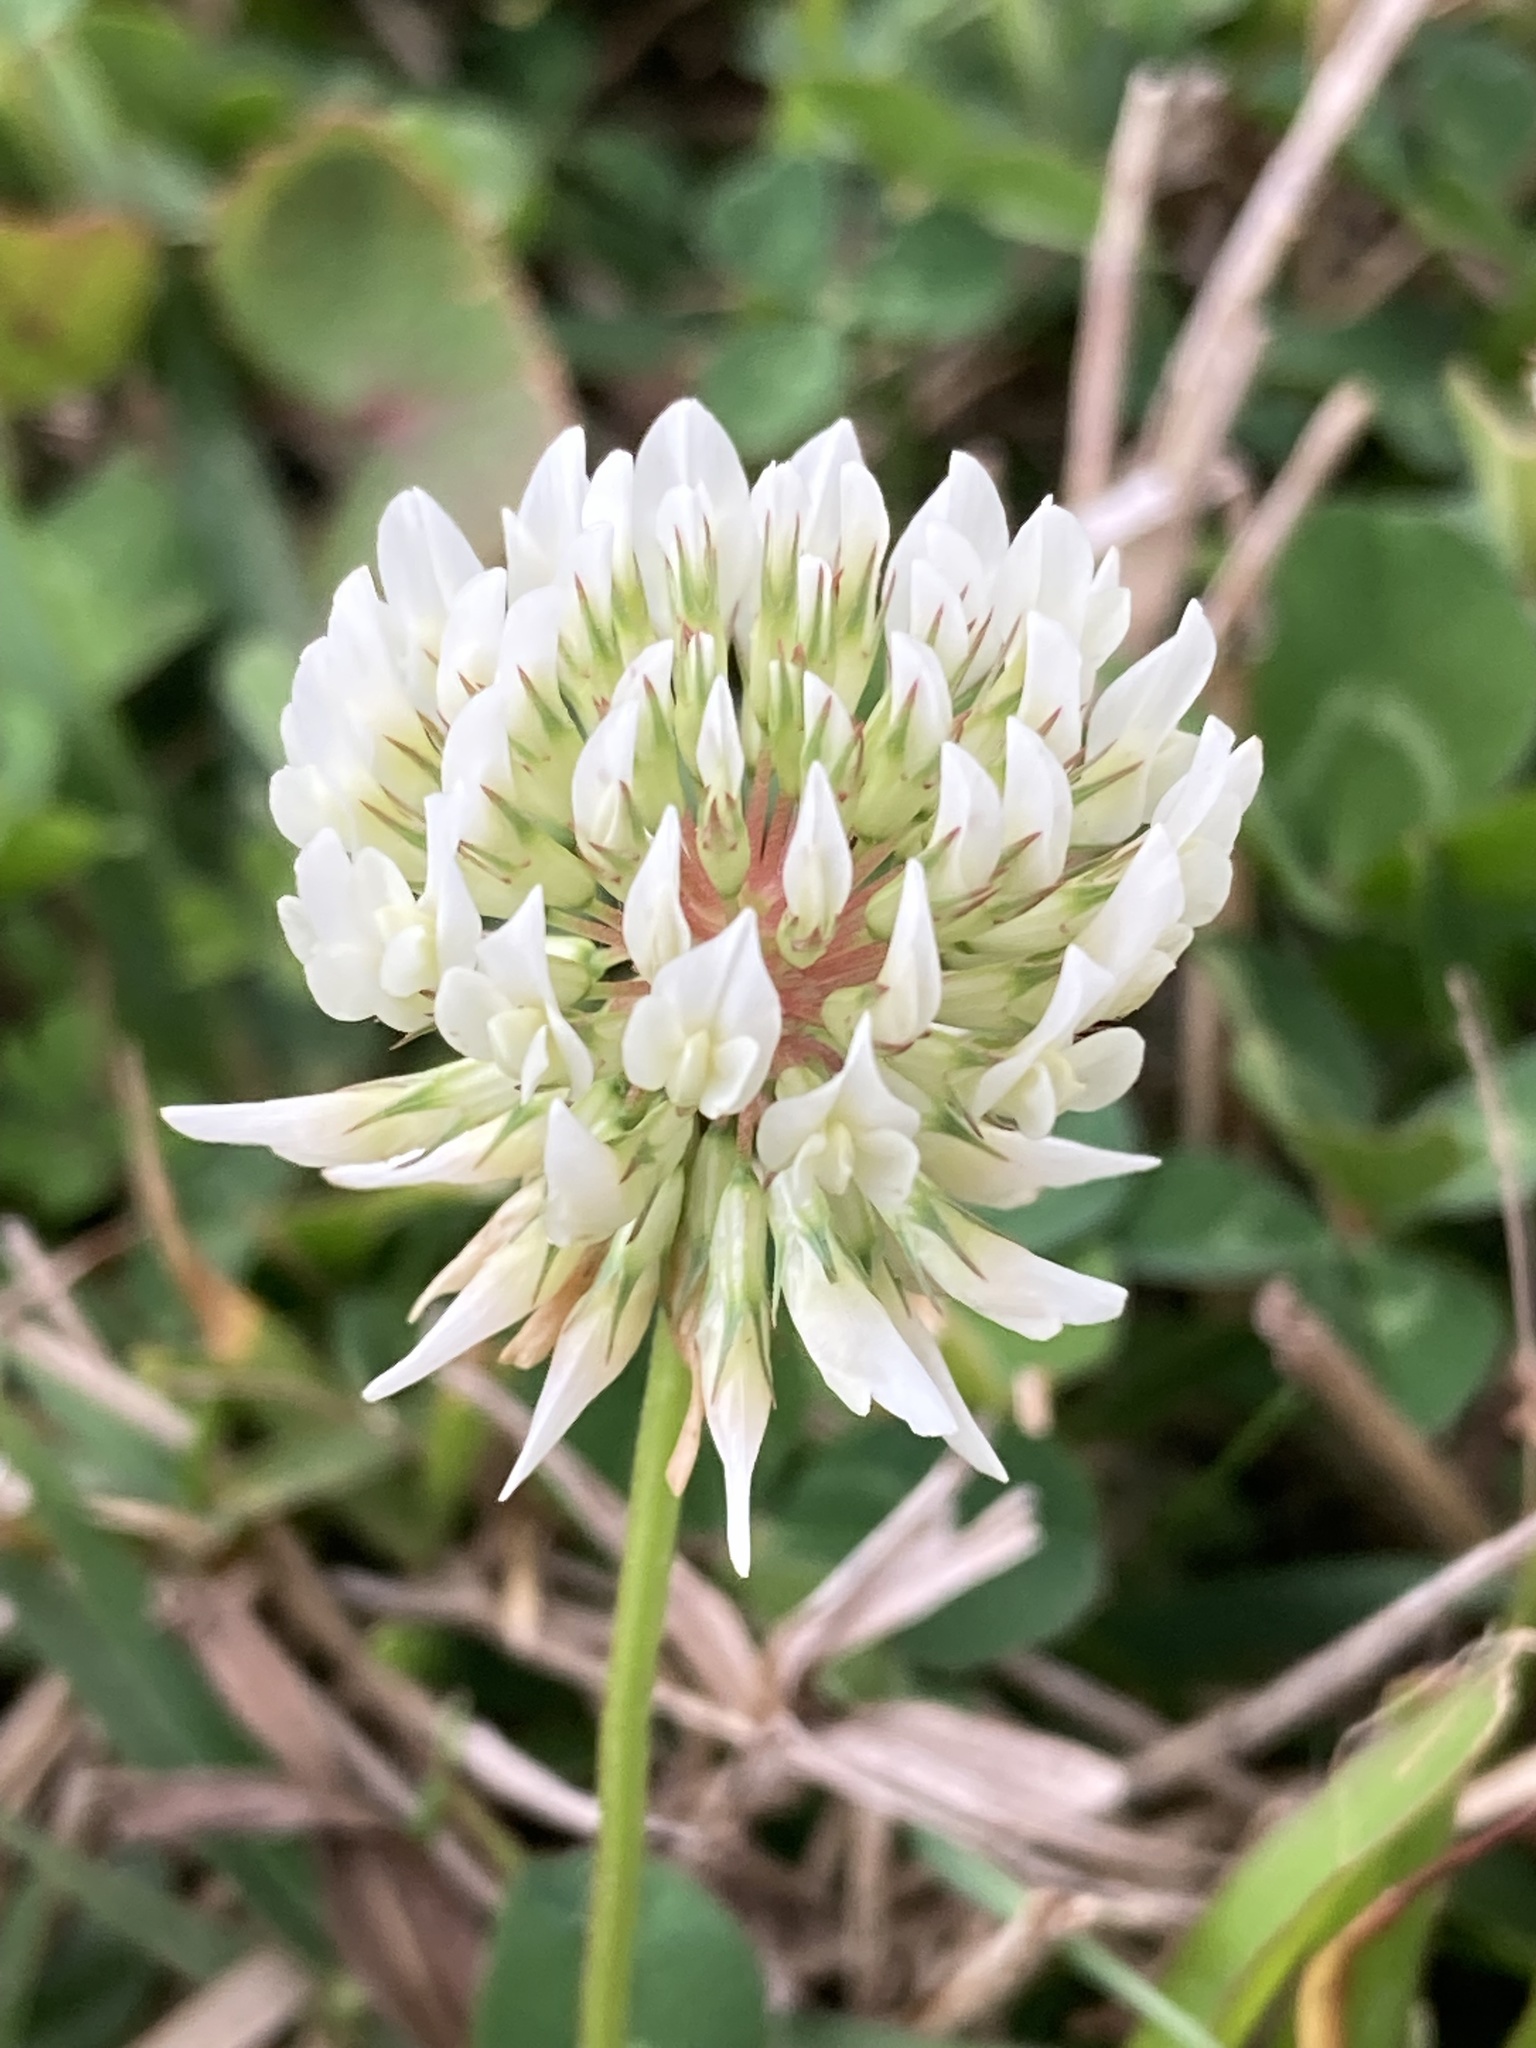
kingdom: Plantae
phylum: Tracheophyta
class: Magnoliopsida
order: Fabales
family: Fabaceae
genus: Trifolium
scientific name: Trifolium repens
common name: White clover
